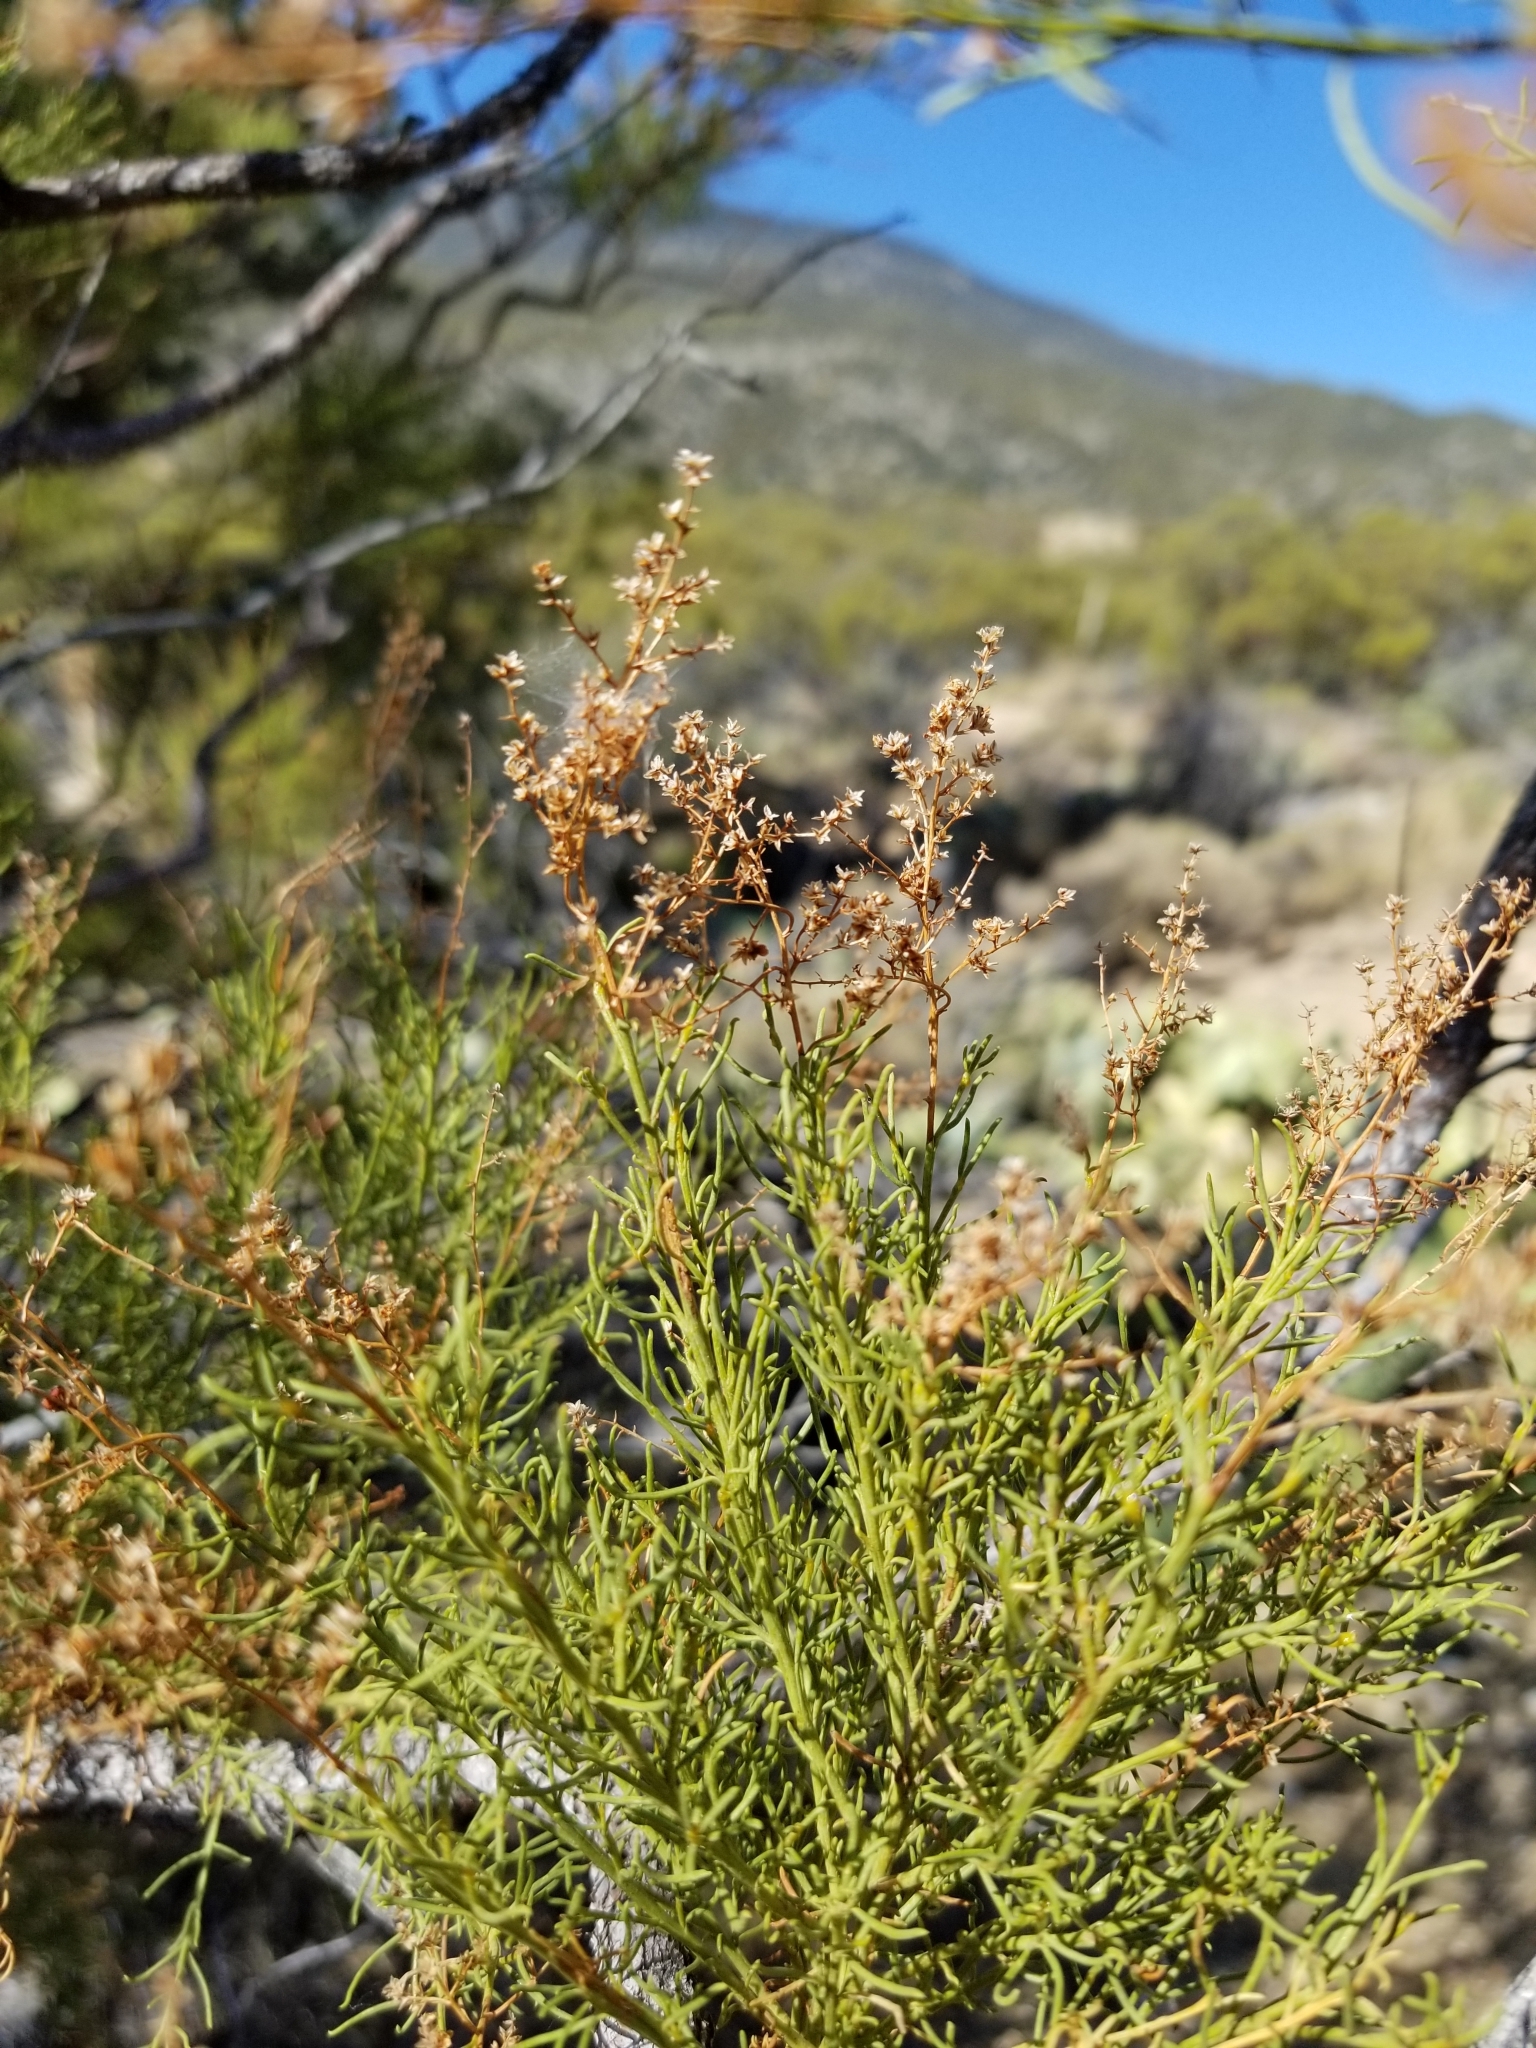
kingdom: Plantae
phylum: Tracheophyta
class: Magnoliopsida
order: Rosales
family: Rosaceae
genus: Adenostoma
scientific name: Adenostoma sparsifolium
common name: Red shank
